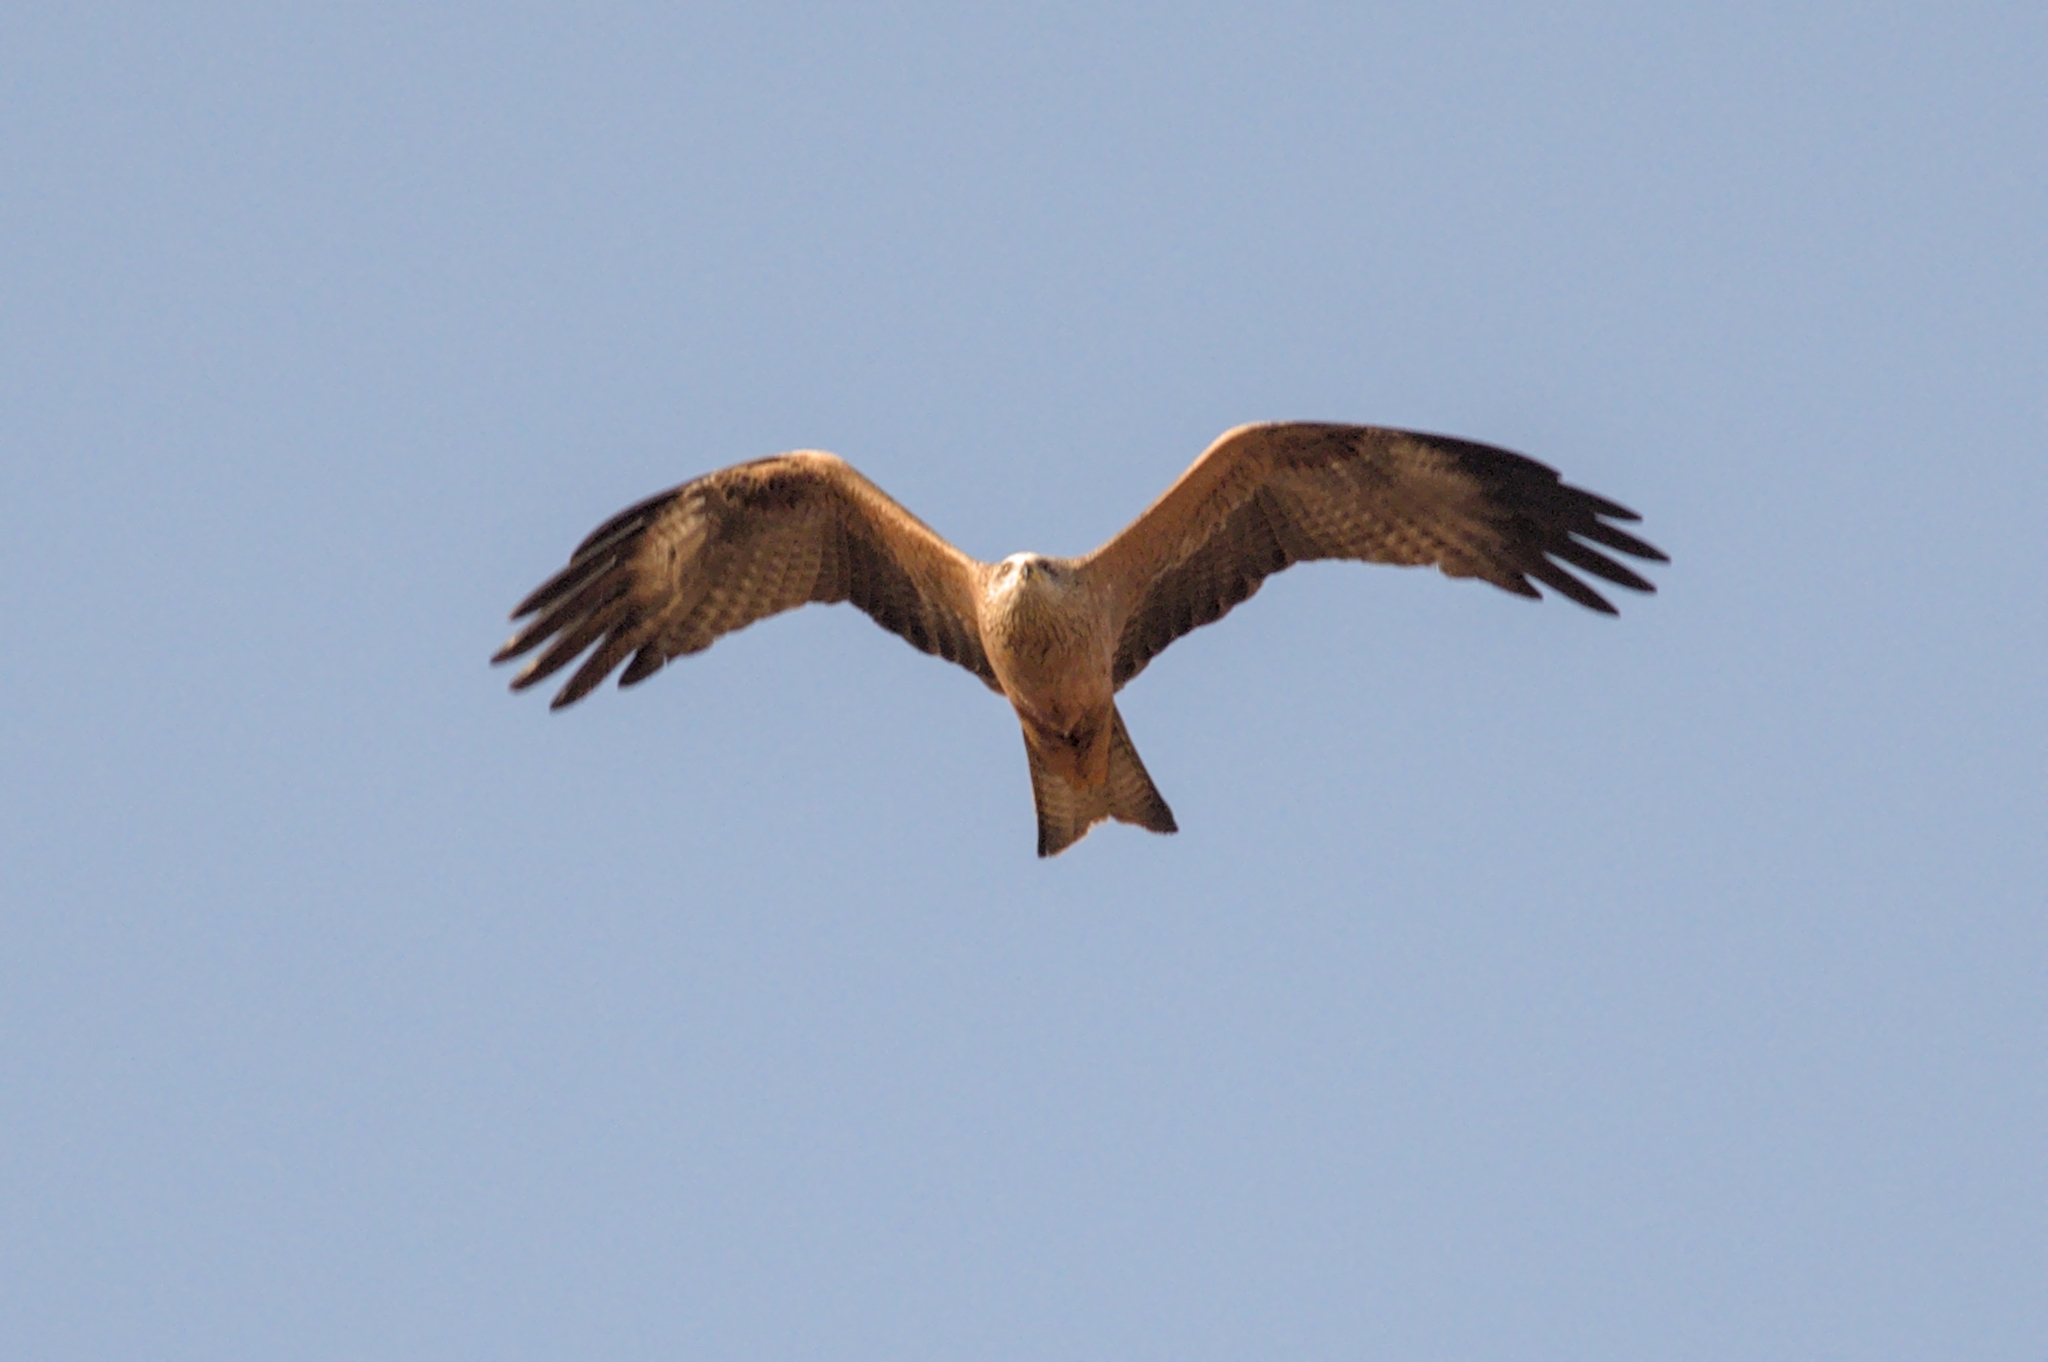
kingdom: Animalia
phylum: Chordata
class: Aves
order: Accipitriformes
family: Accipitridae
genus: Milvus
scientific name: Milvus migrans
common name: Black kite
